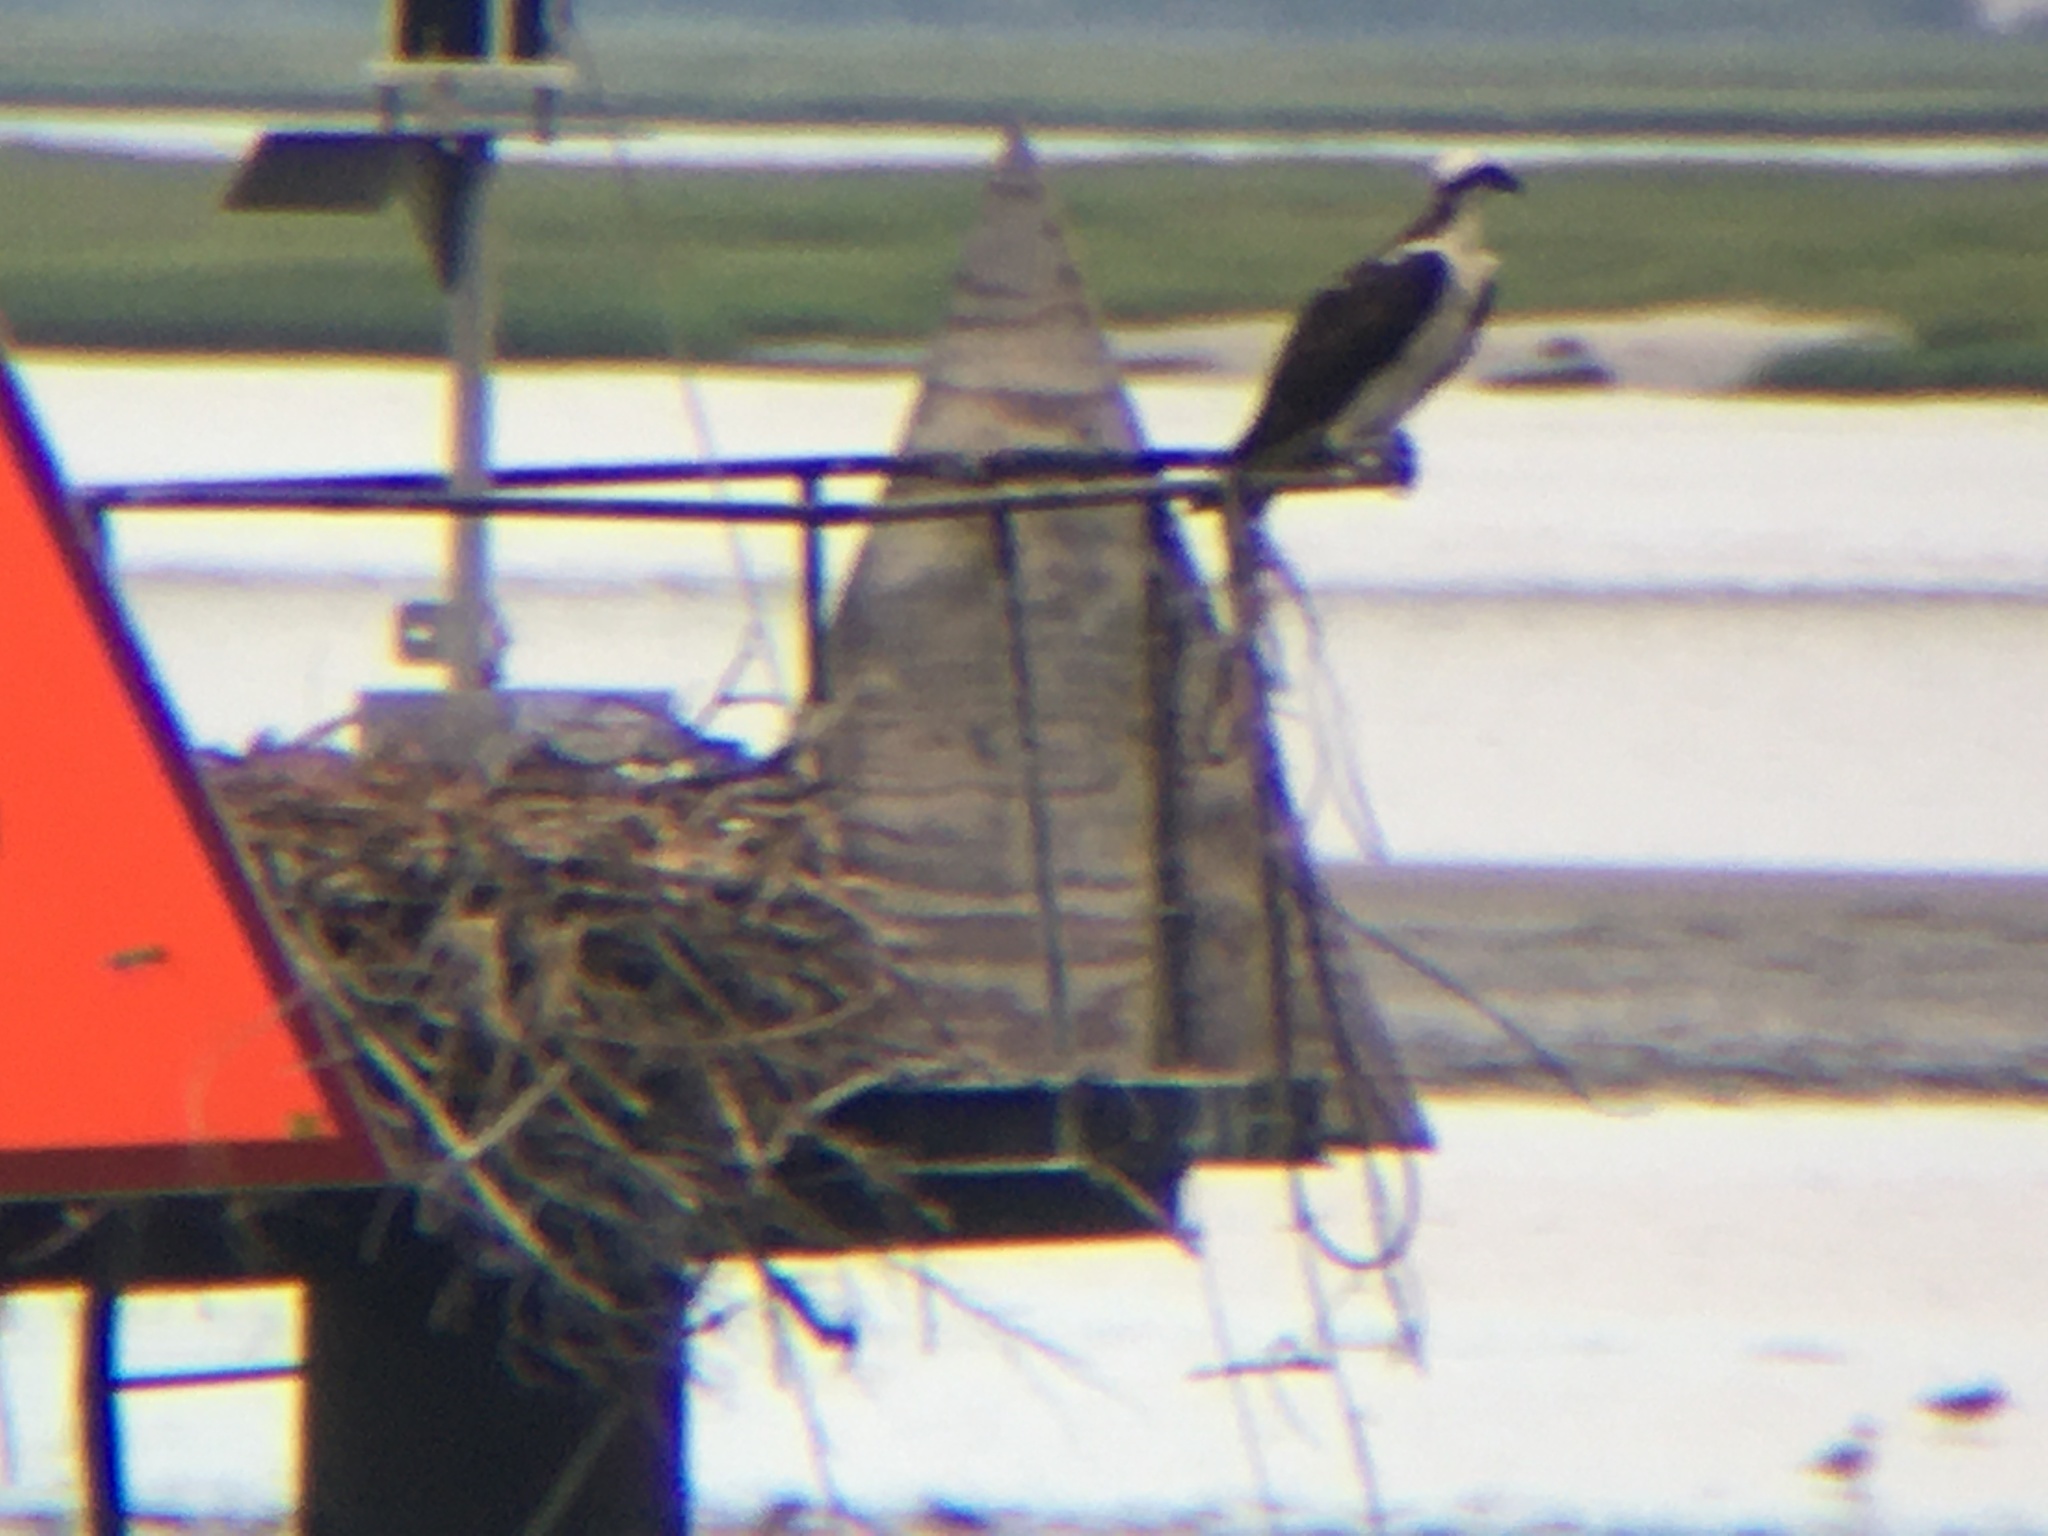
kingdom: Animalia
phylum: Chordata
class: Aves
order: Accipitriformes
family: Pandionidae
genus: Pandion
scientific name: Pandion haliaetus
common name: Osprey
